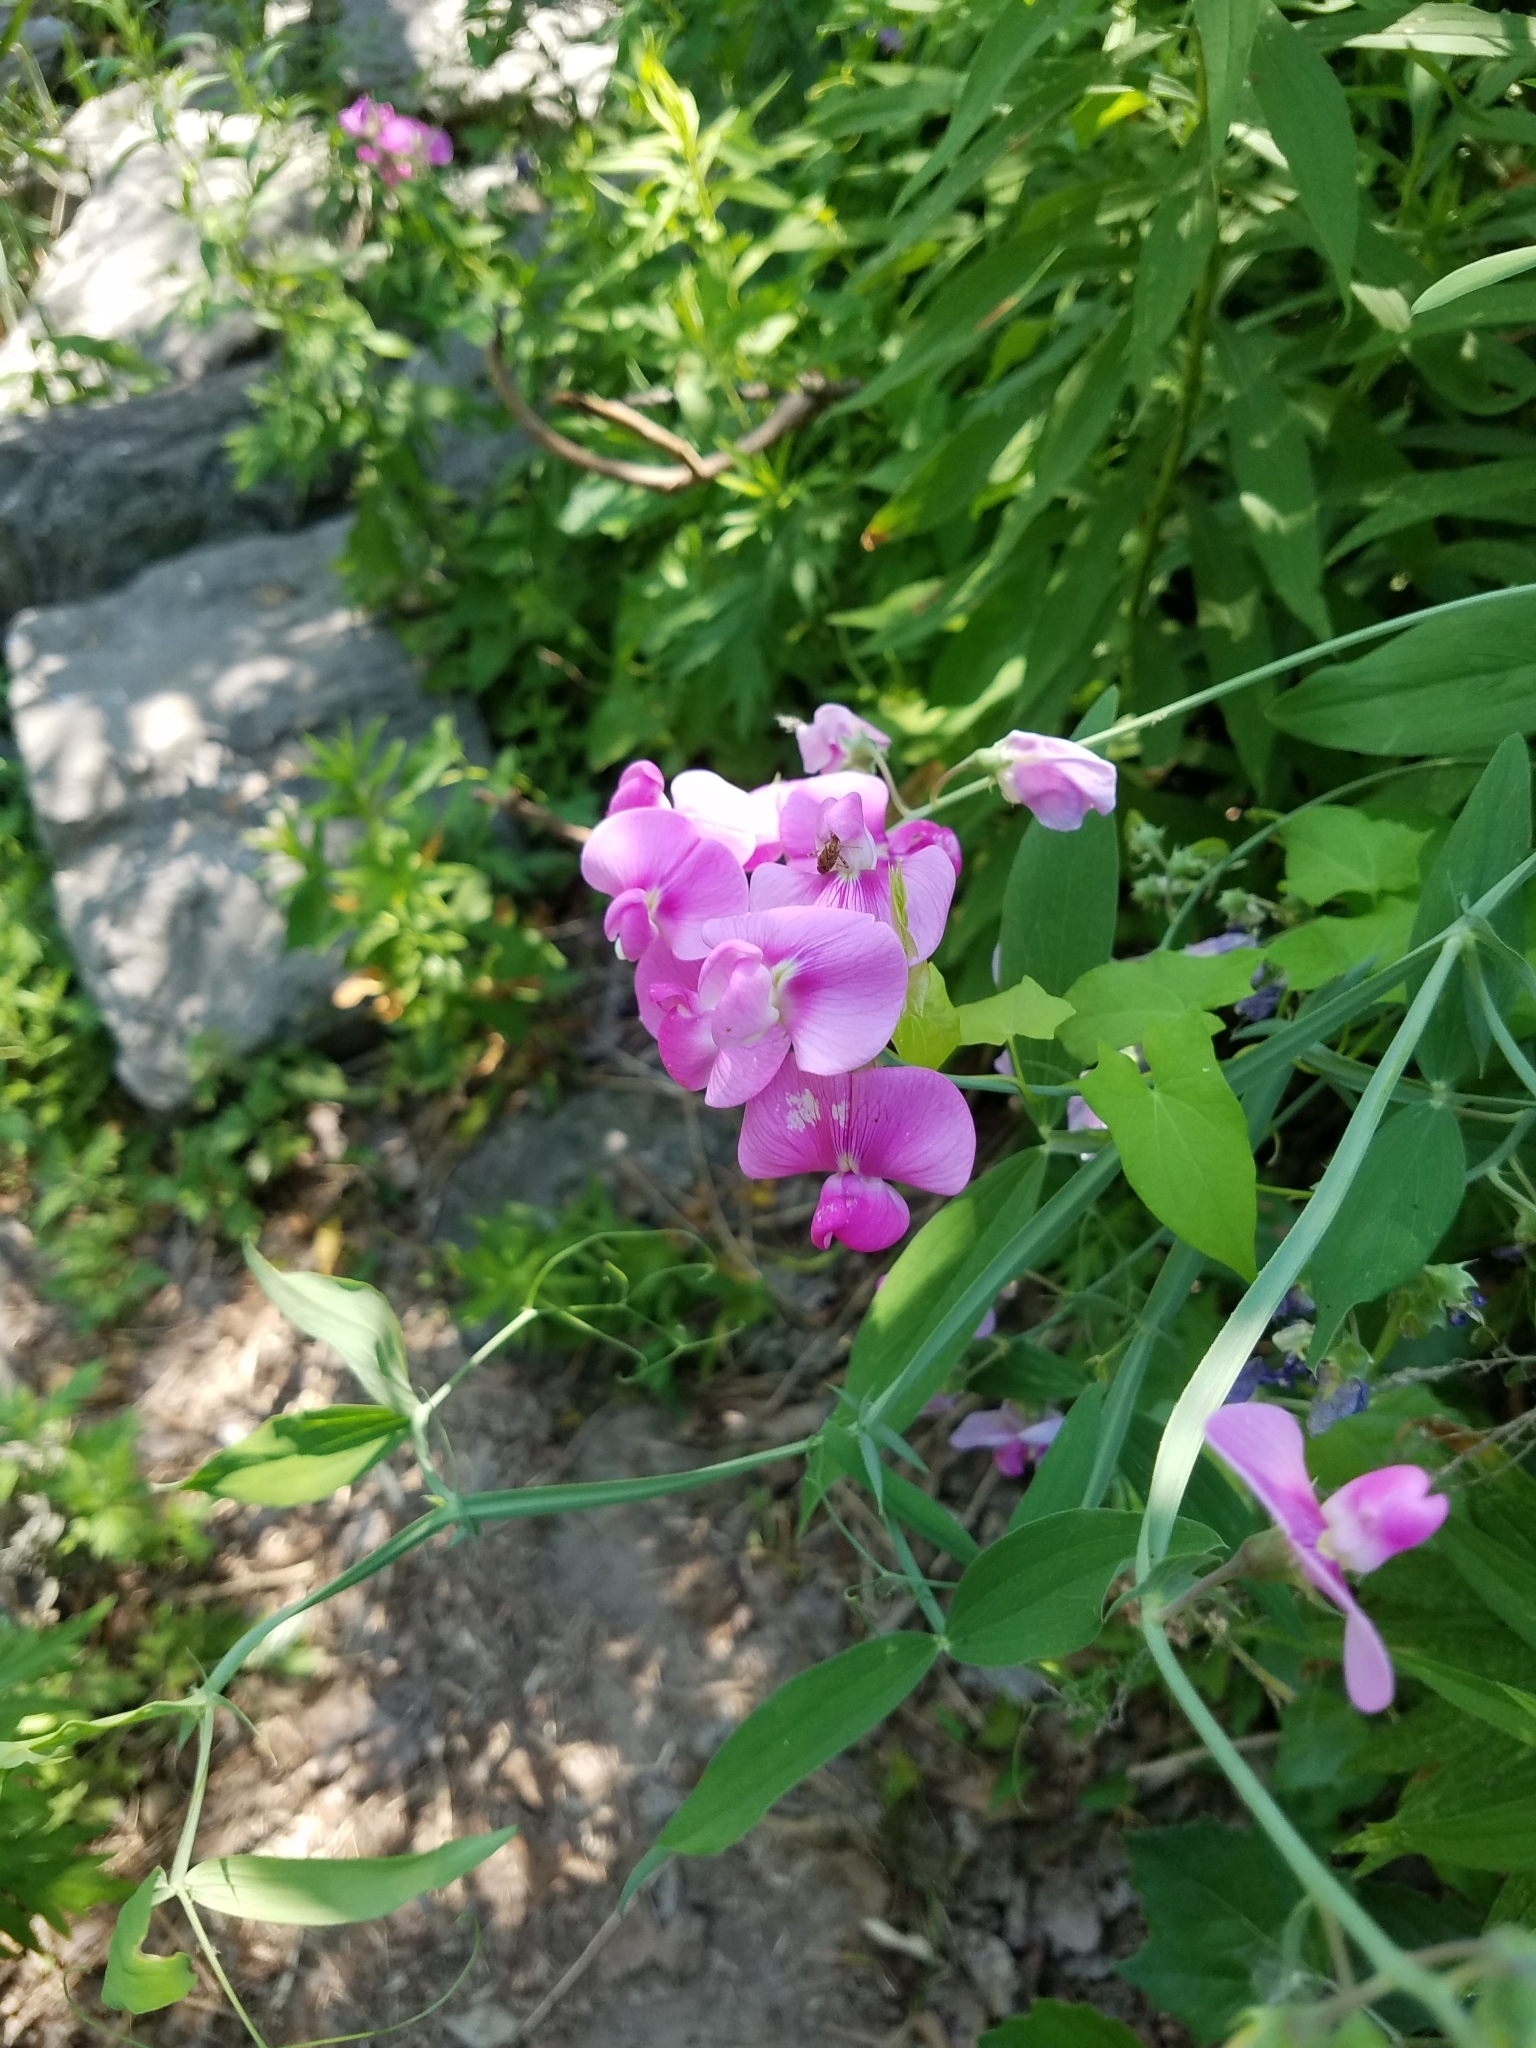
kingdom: Plantae
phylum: Tracheophyta
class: Magnoliopsida
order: Fabales
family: Fabaceae
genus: Lathyrus
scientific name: Lathyrus latifolius
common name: Perennial pea
